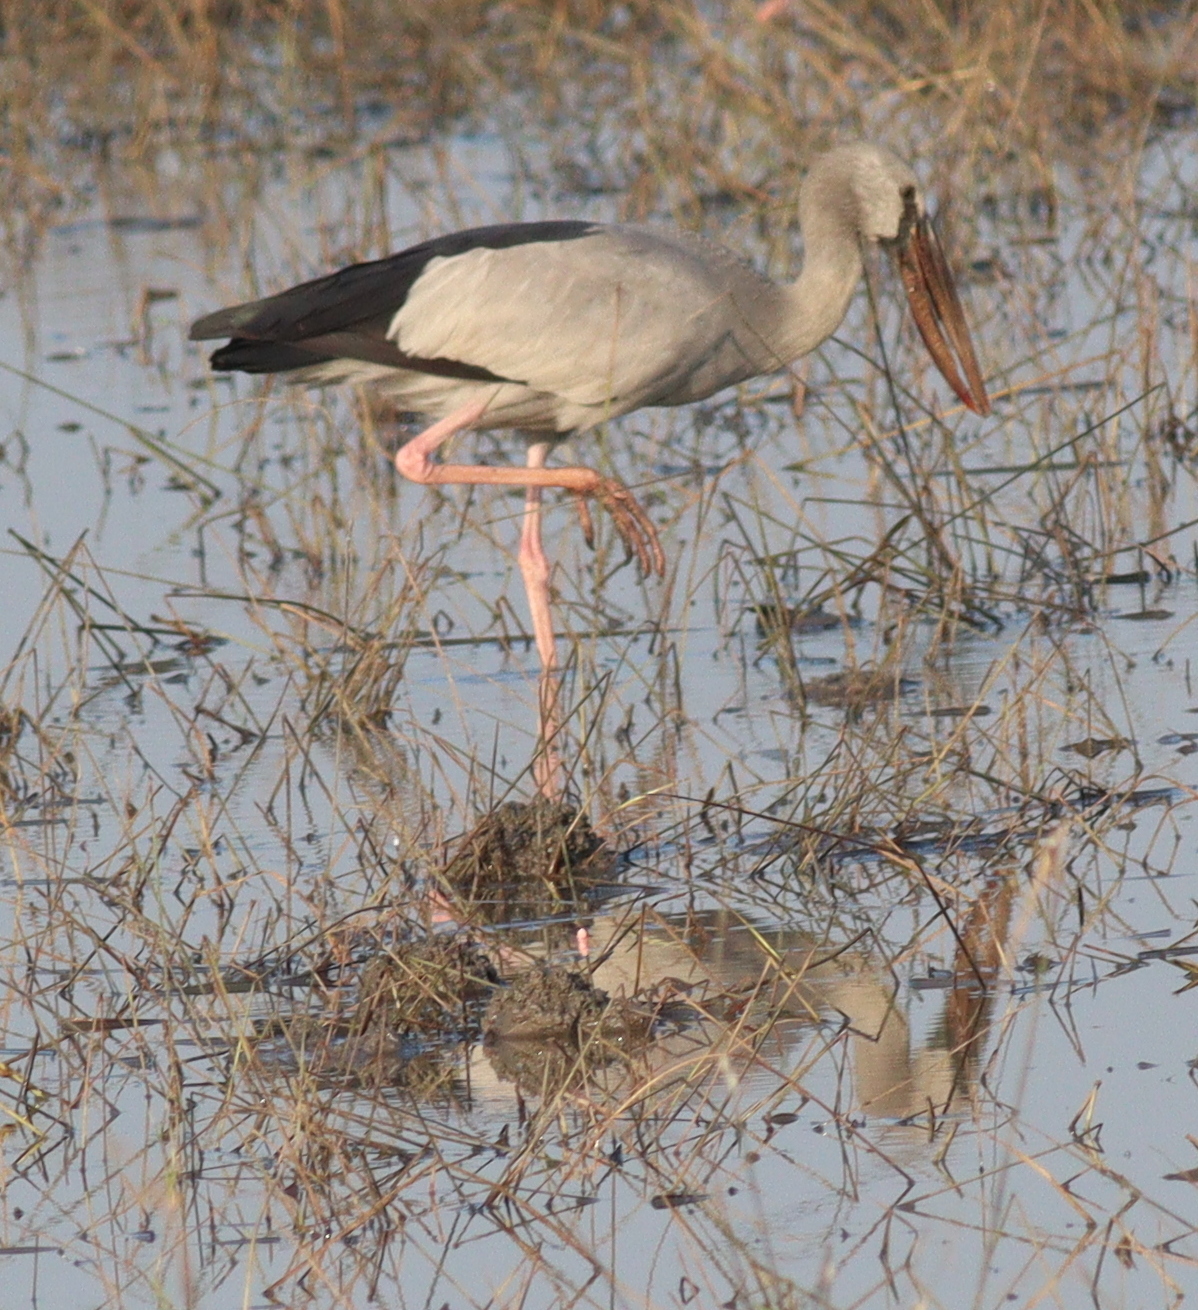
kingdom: Animalia
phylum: Chordata
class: Aves
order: Ciconiiformes
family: Ciconiidae
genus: Anastomus
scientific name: Anastomus oscitans
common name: Asian openbill
